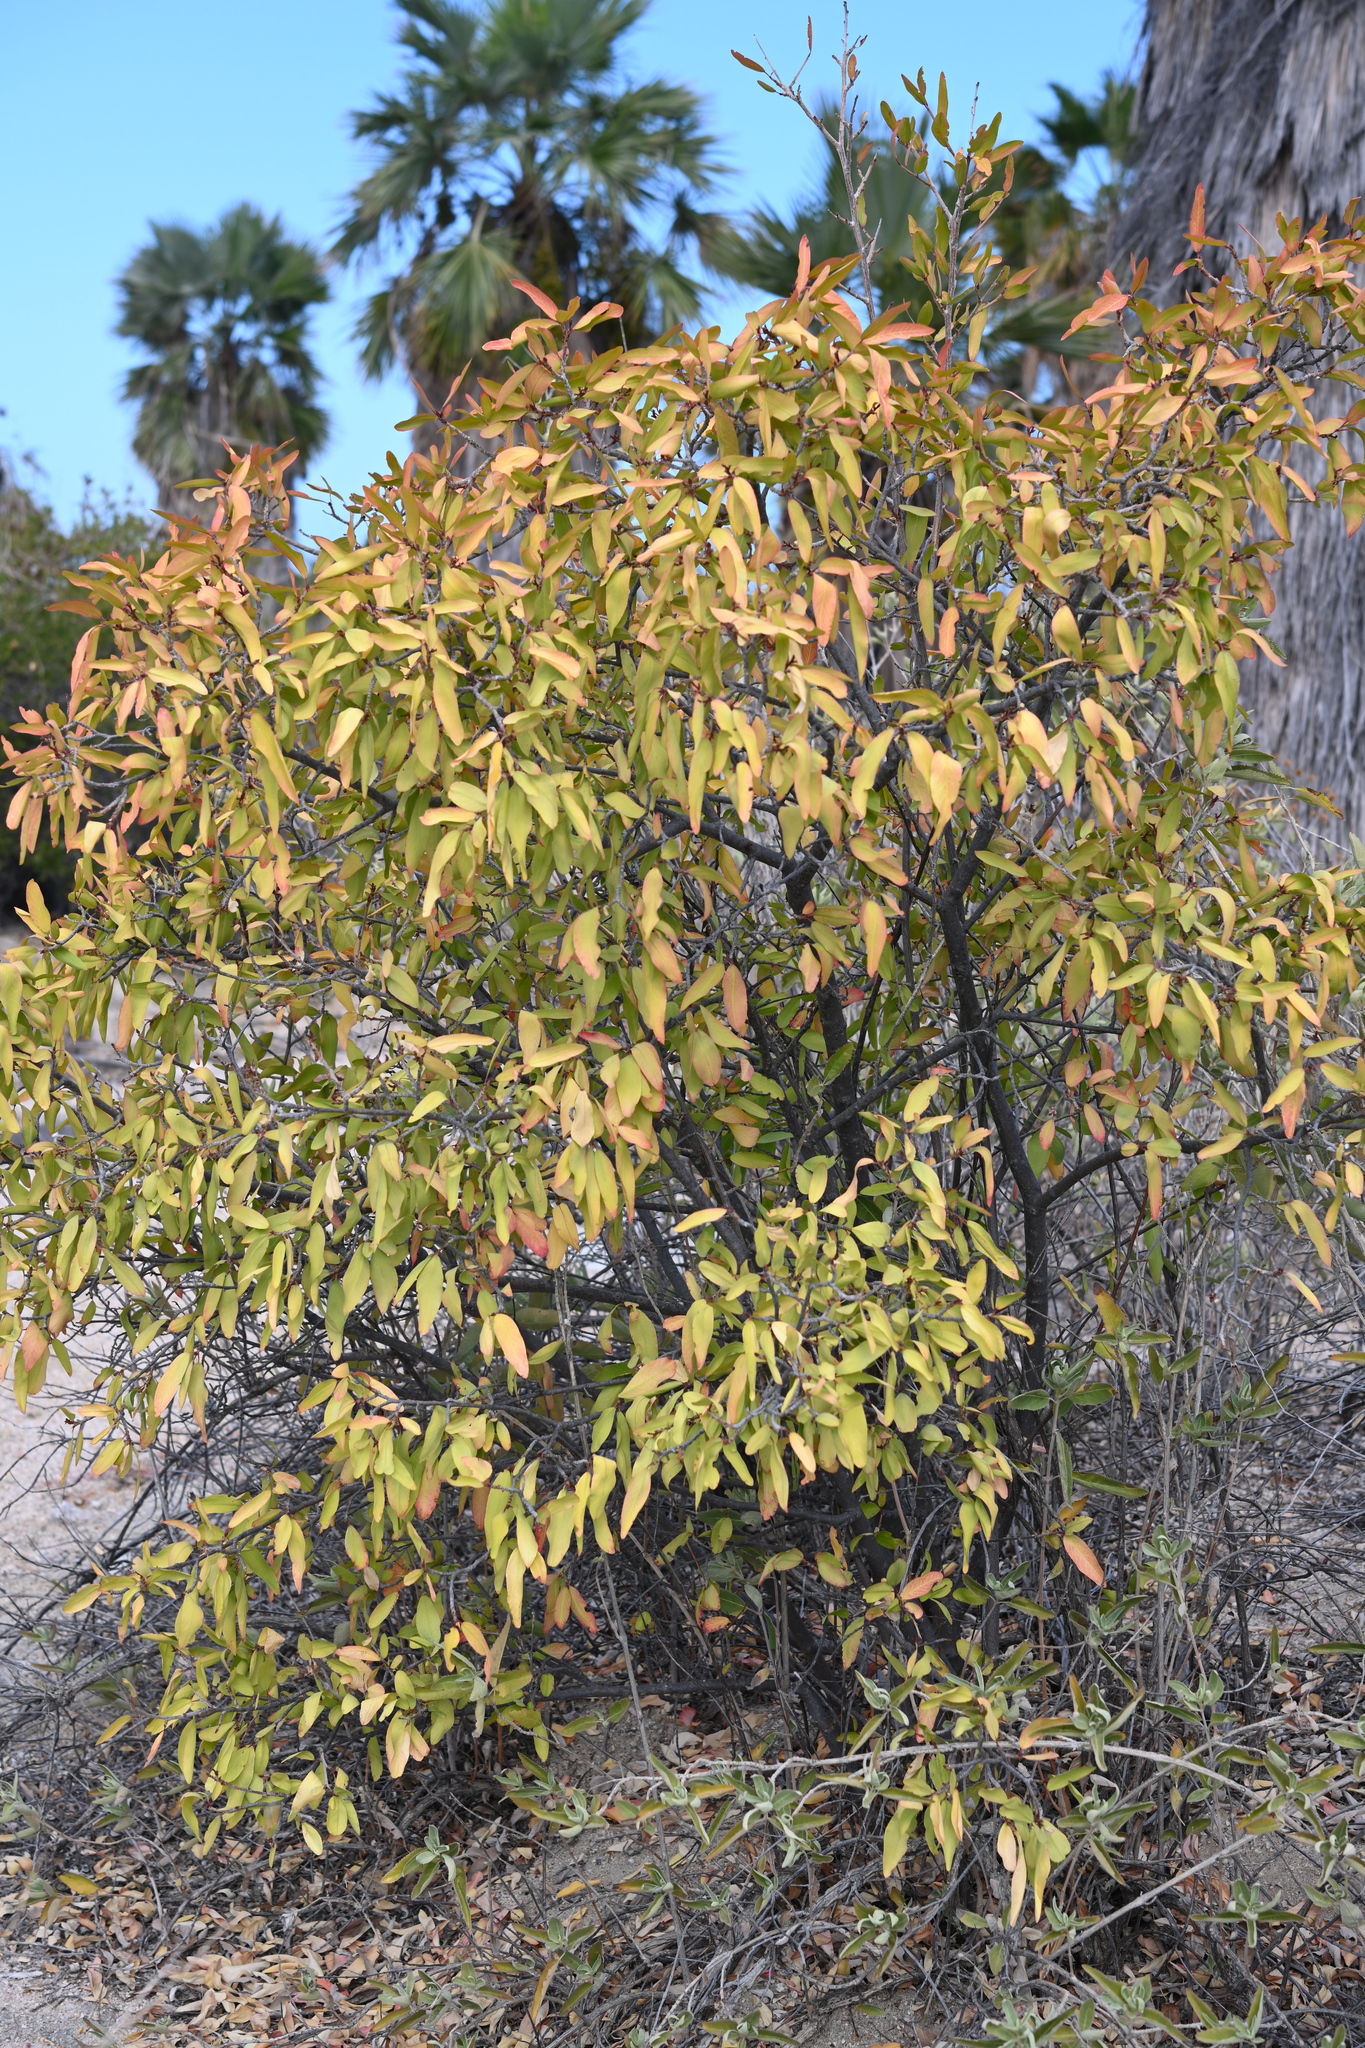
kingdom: Plantae
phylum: Tracheophyta
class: Magnoliopsida
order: Malpighiales
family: Euphorbiaceae
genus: Pleradenophora
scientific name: Pleradenophora bilocularis
